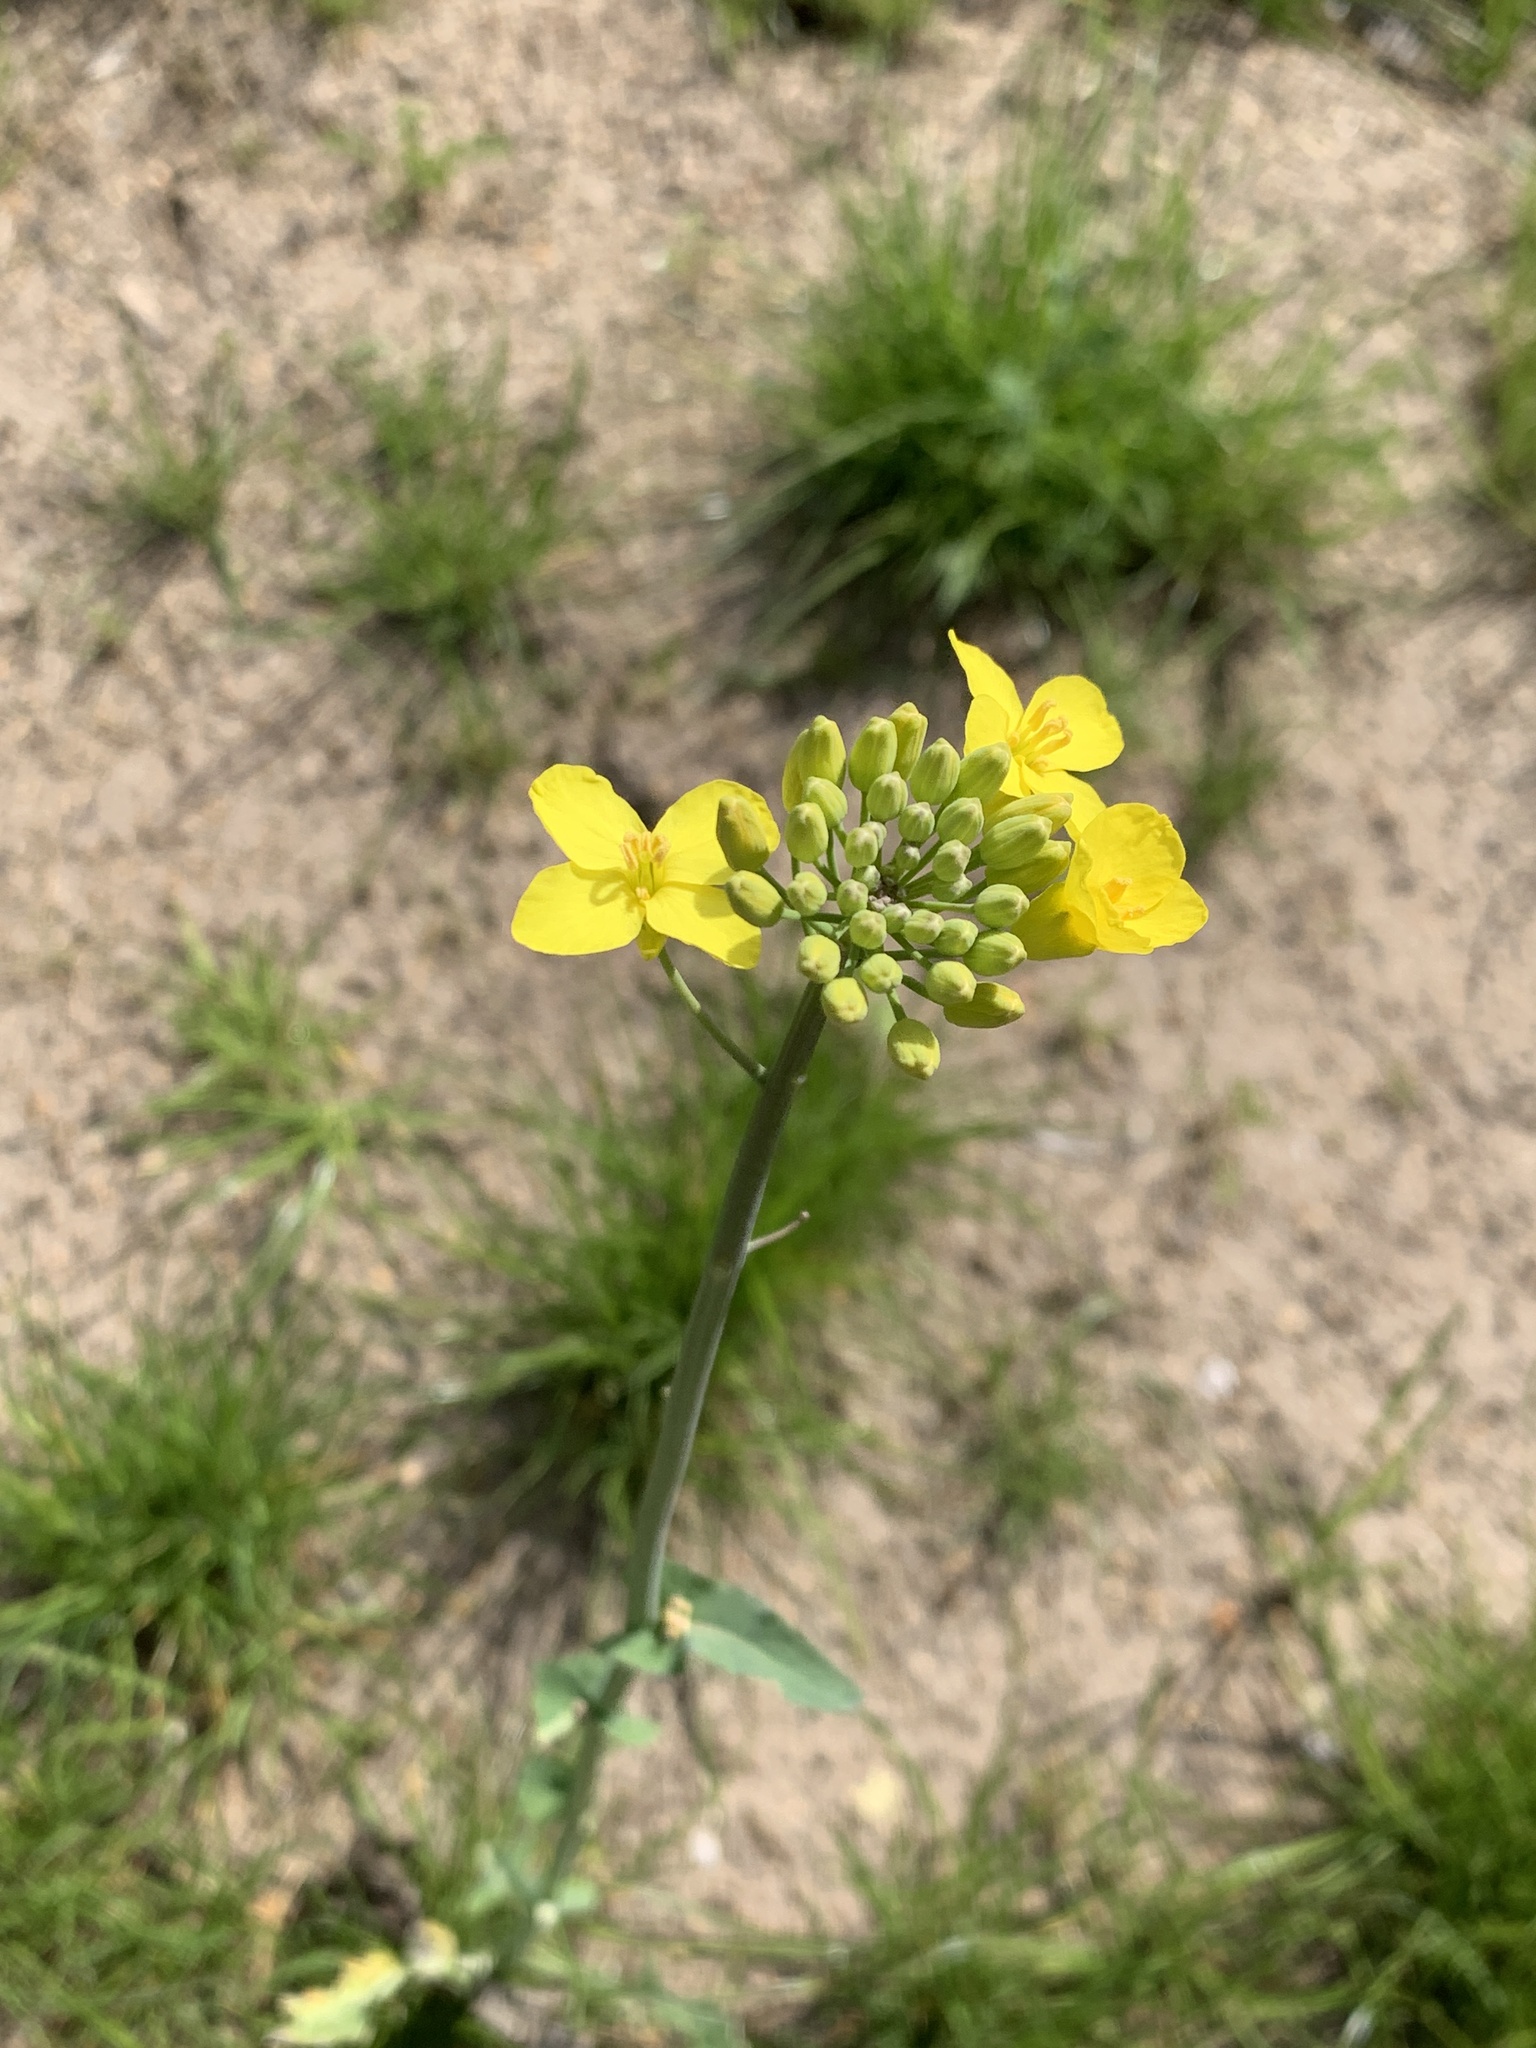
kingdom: Plantae
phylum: Tracheophyta
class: Magnoliopsida
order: Brassicales
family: Brassicaceae
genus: Brassica
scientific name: Brassica napus
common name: Rape
